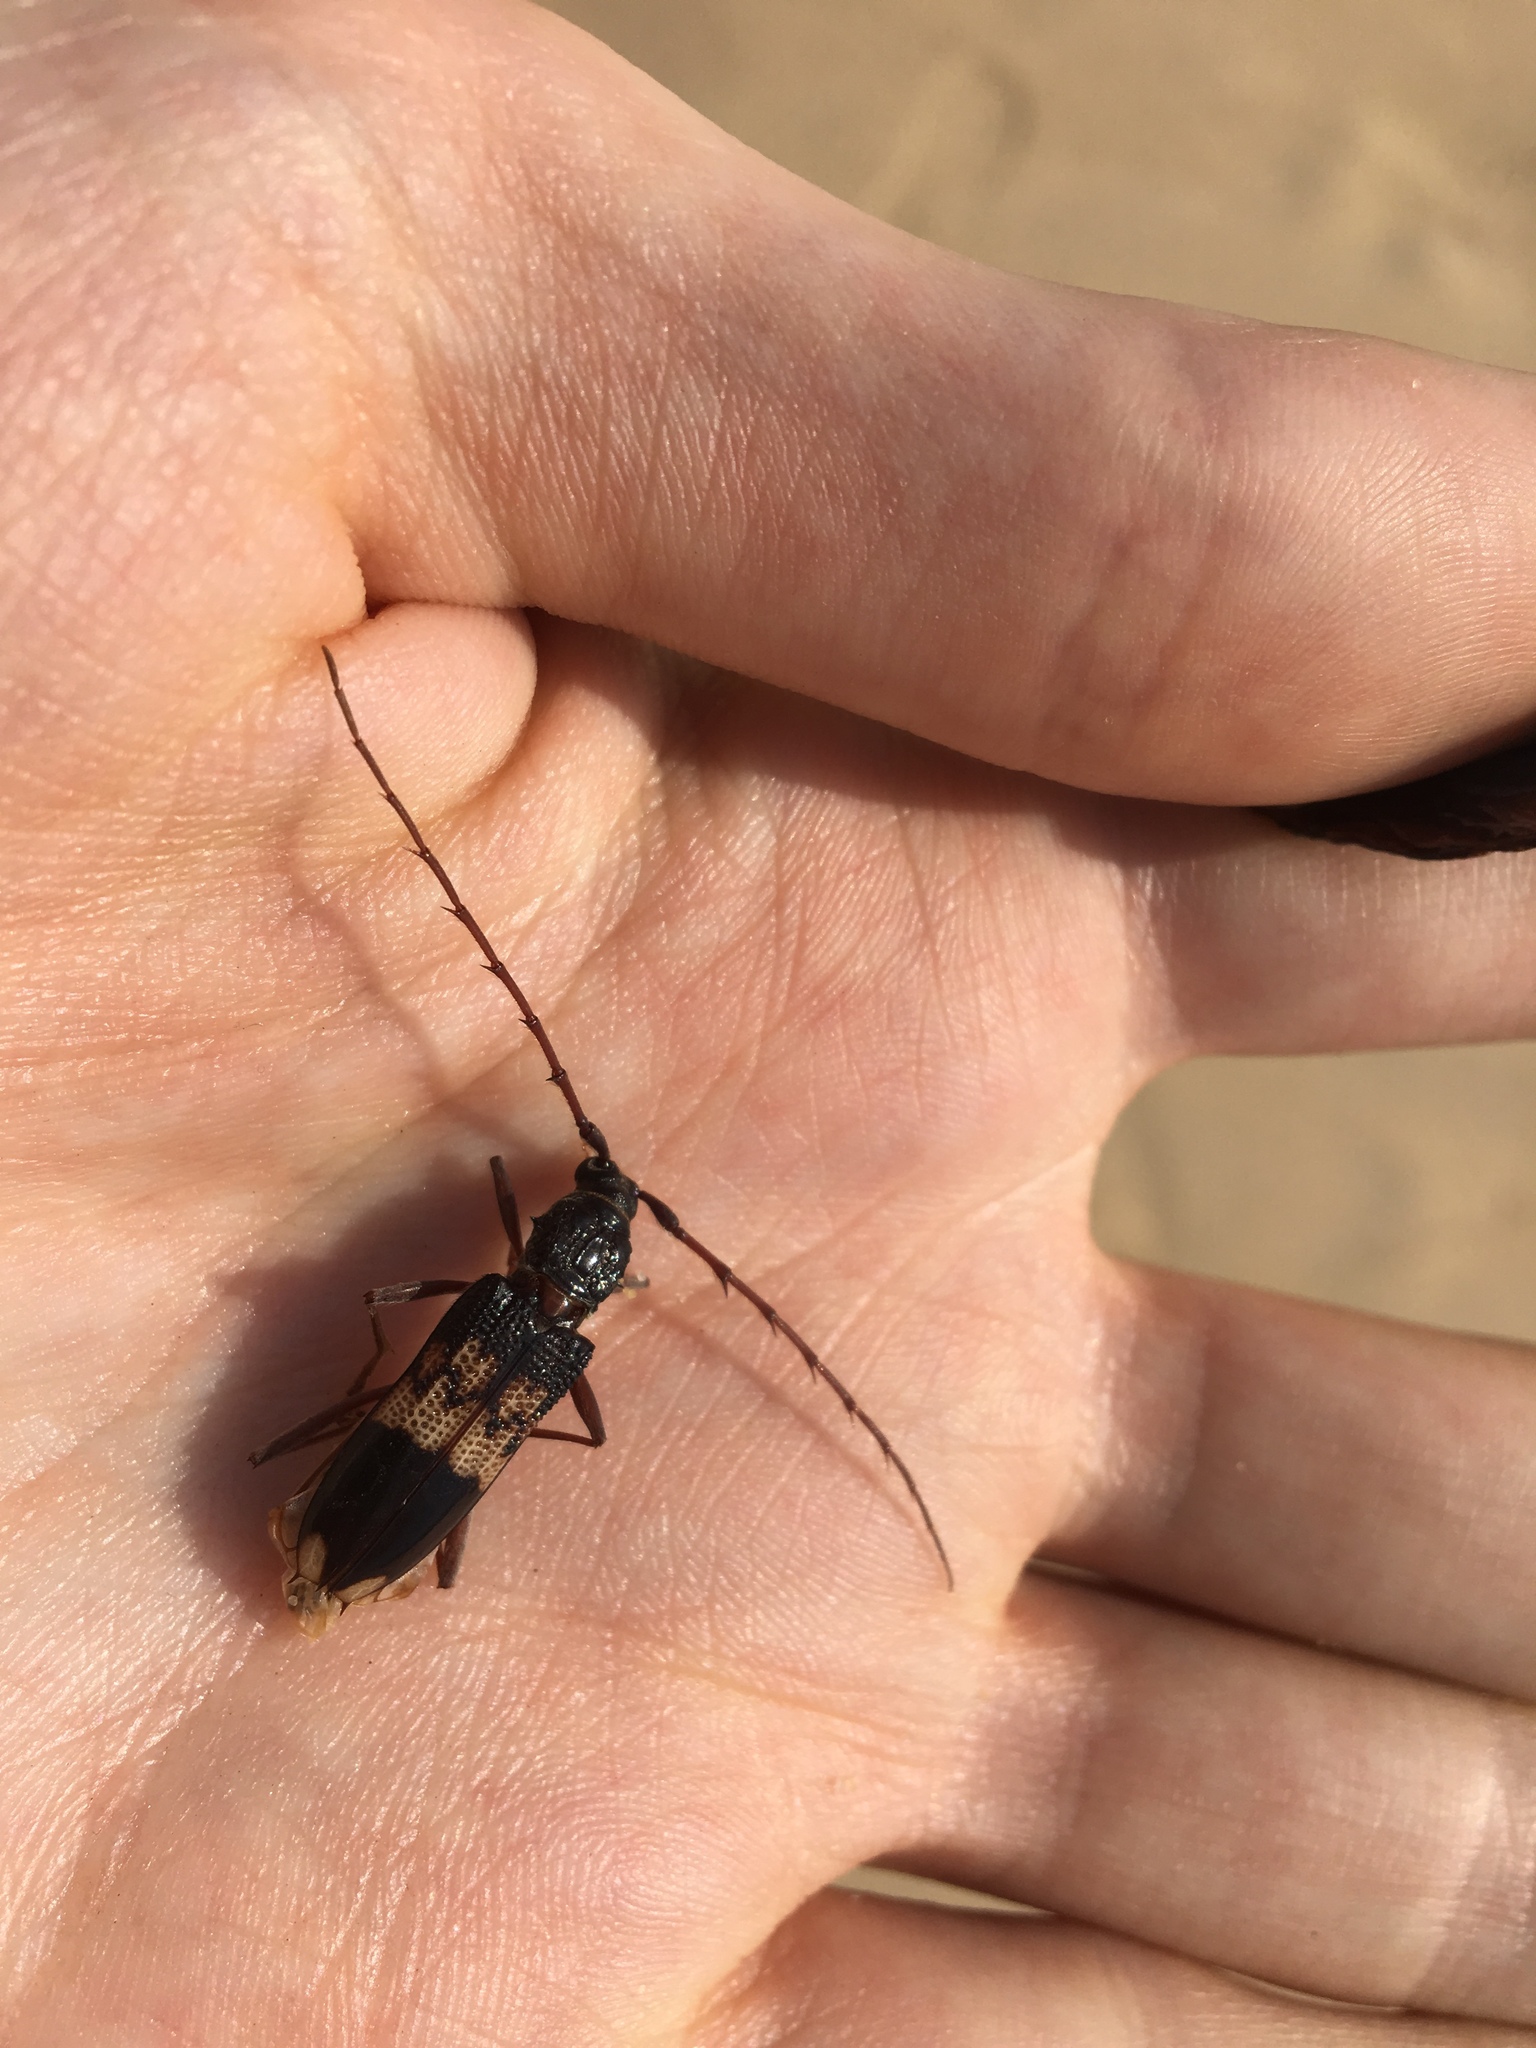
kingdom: Animalia
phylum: Arthropoda
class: Insecta
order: Coleoptera
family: Cerambycidae
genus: Phoracantha
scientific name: Phoracantha semipunctata
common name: Eucalyptus longhorn borer
